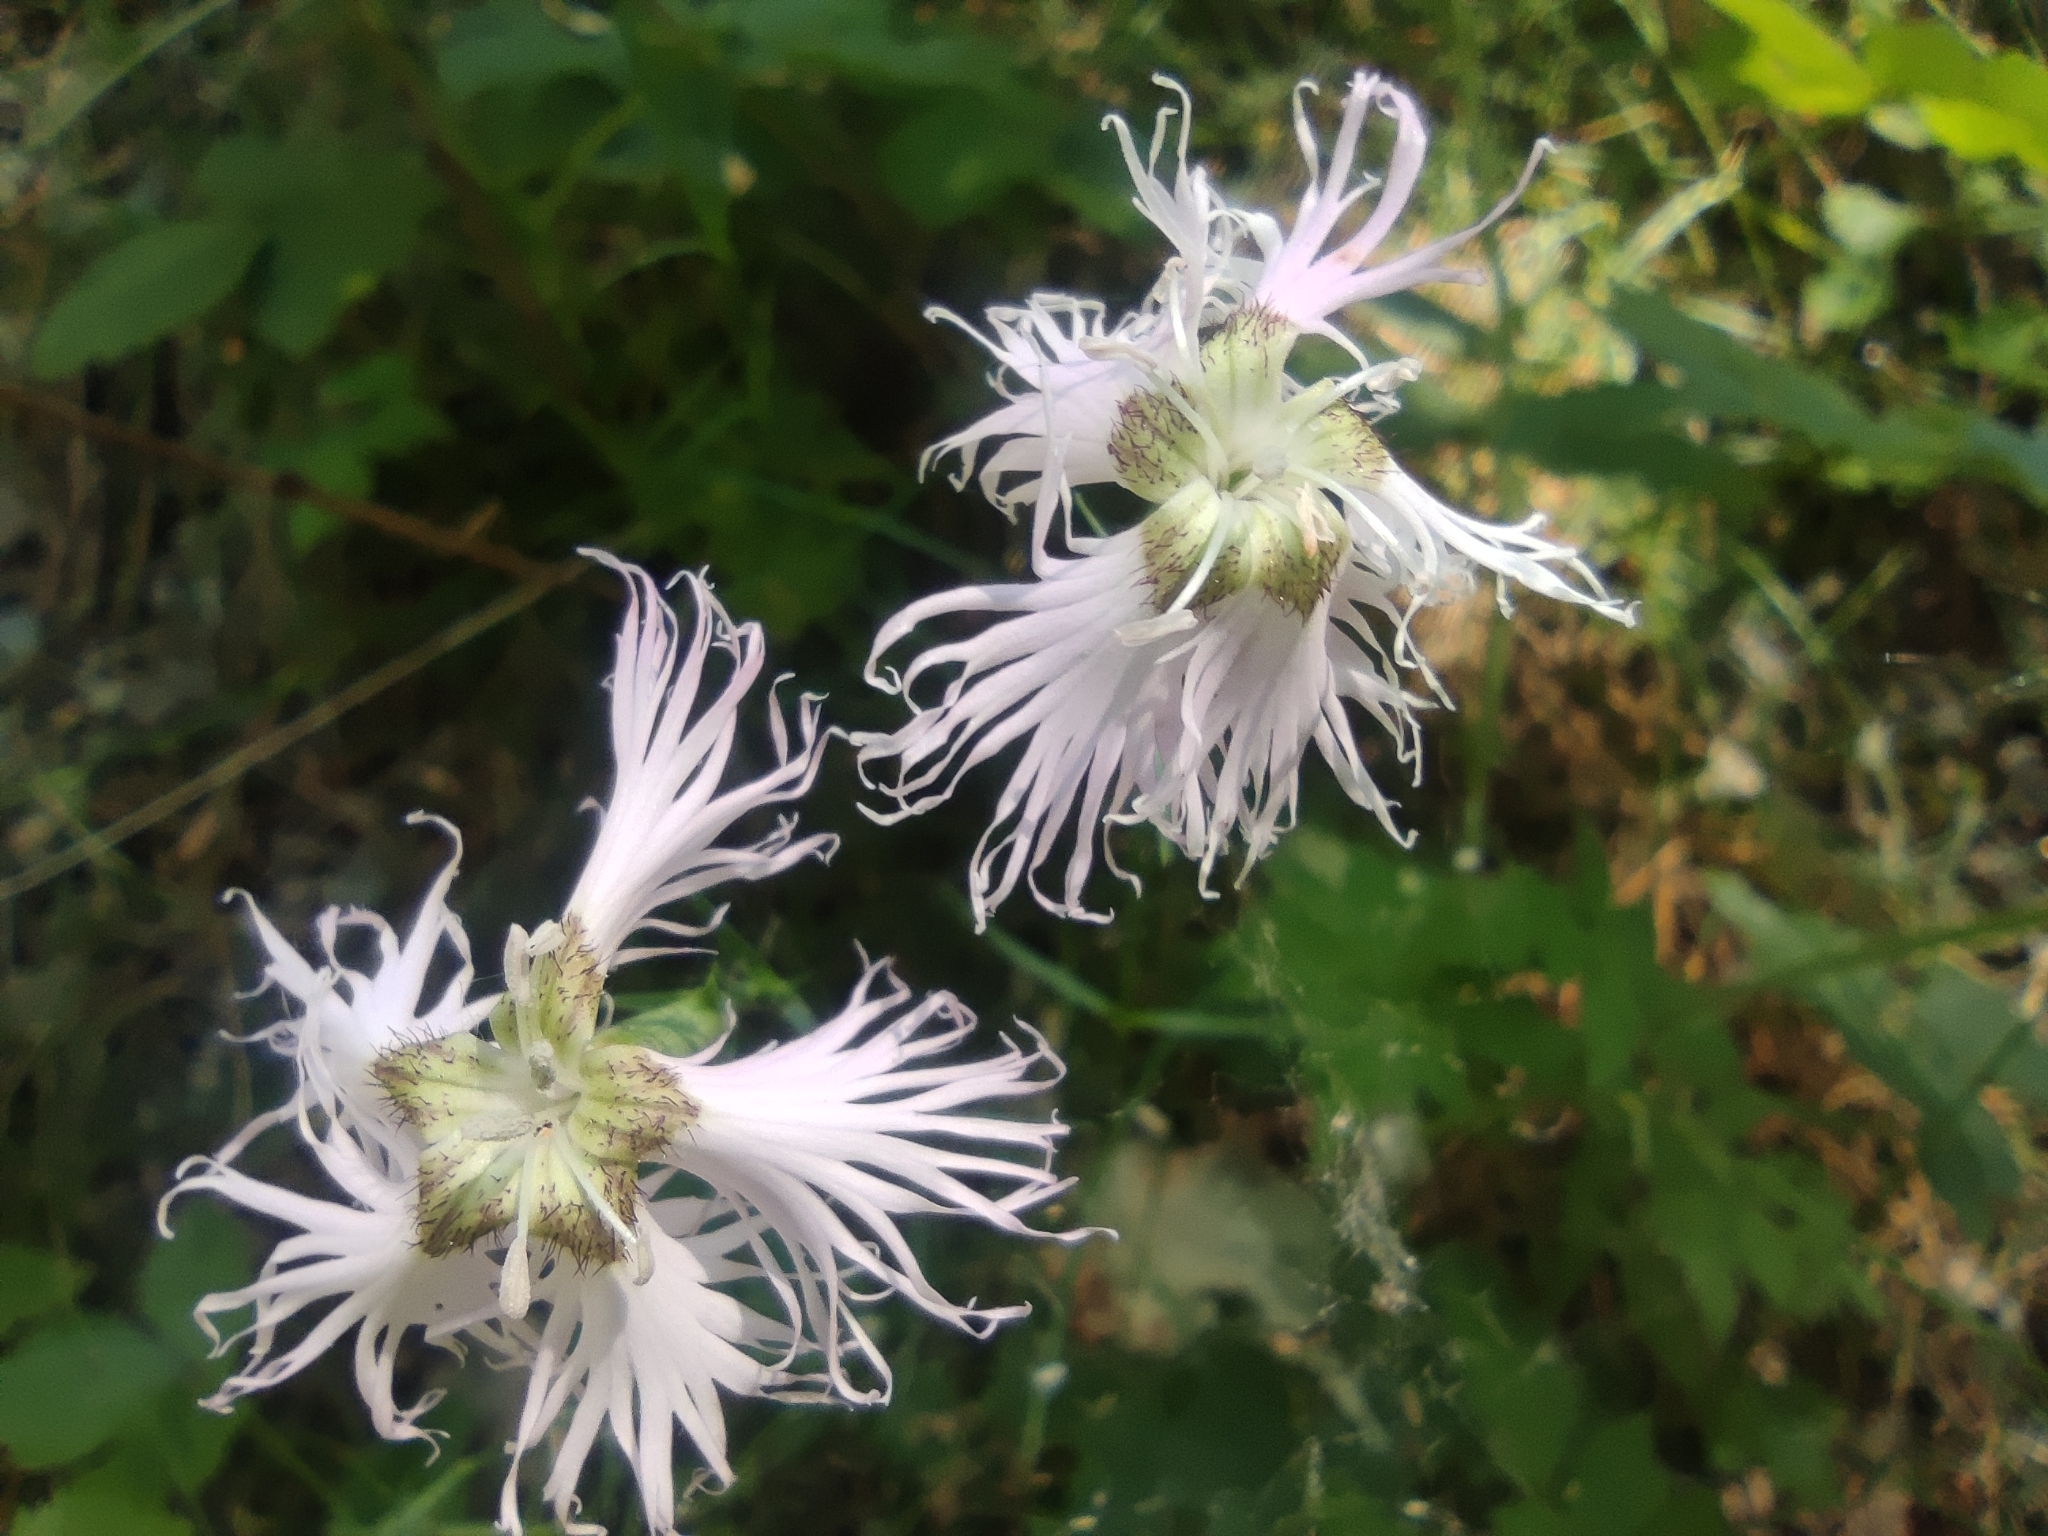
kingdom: Plantae
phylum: Tracheophyta
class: Magnoliopsida
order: Caryophyllales
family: Caryophyllaceae
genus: Dianthus
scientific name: Dianthus hyssopifolius
